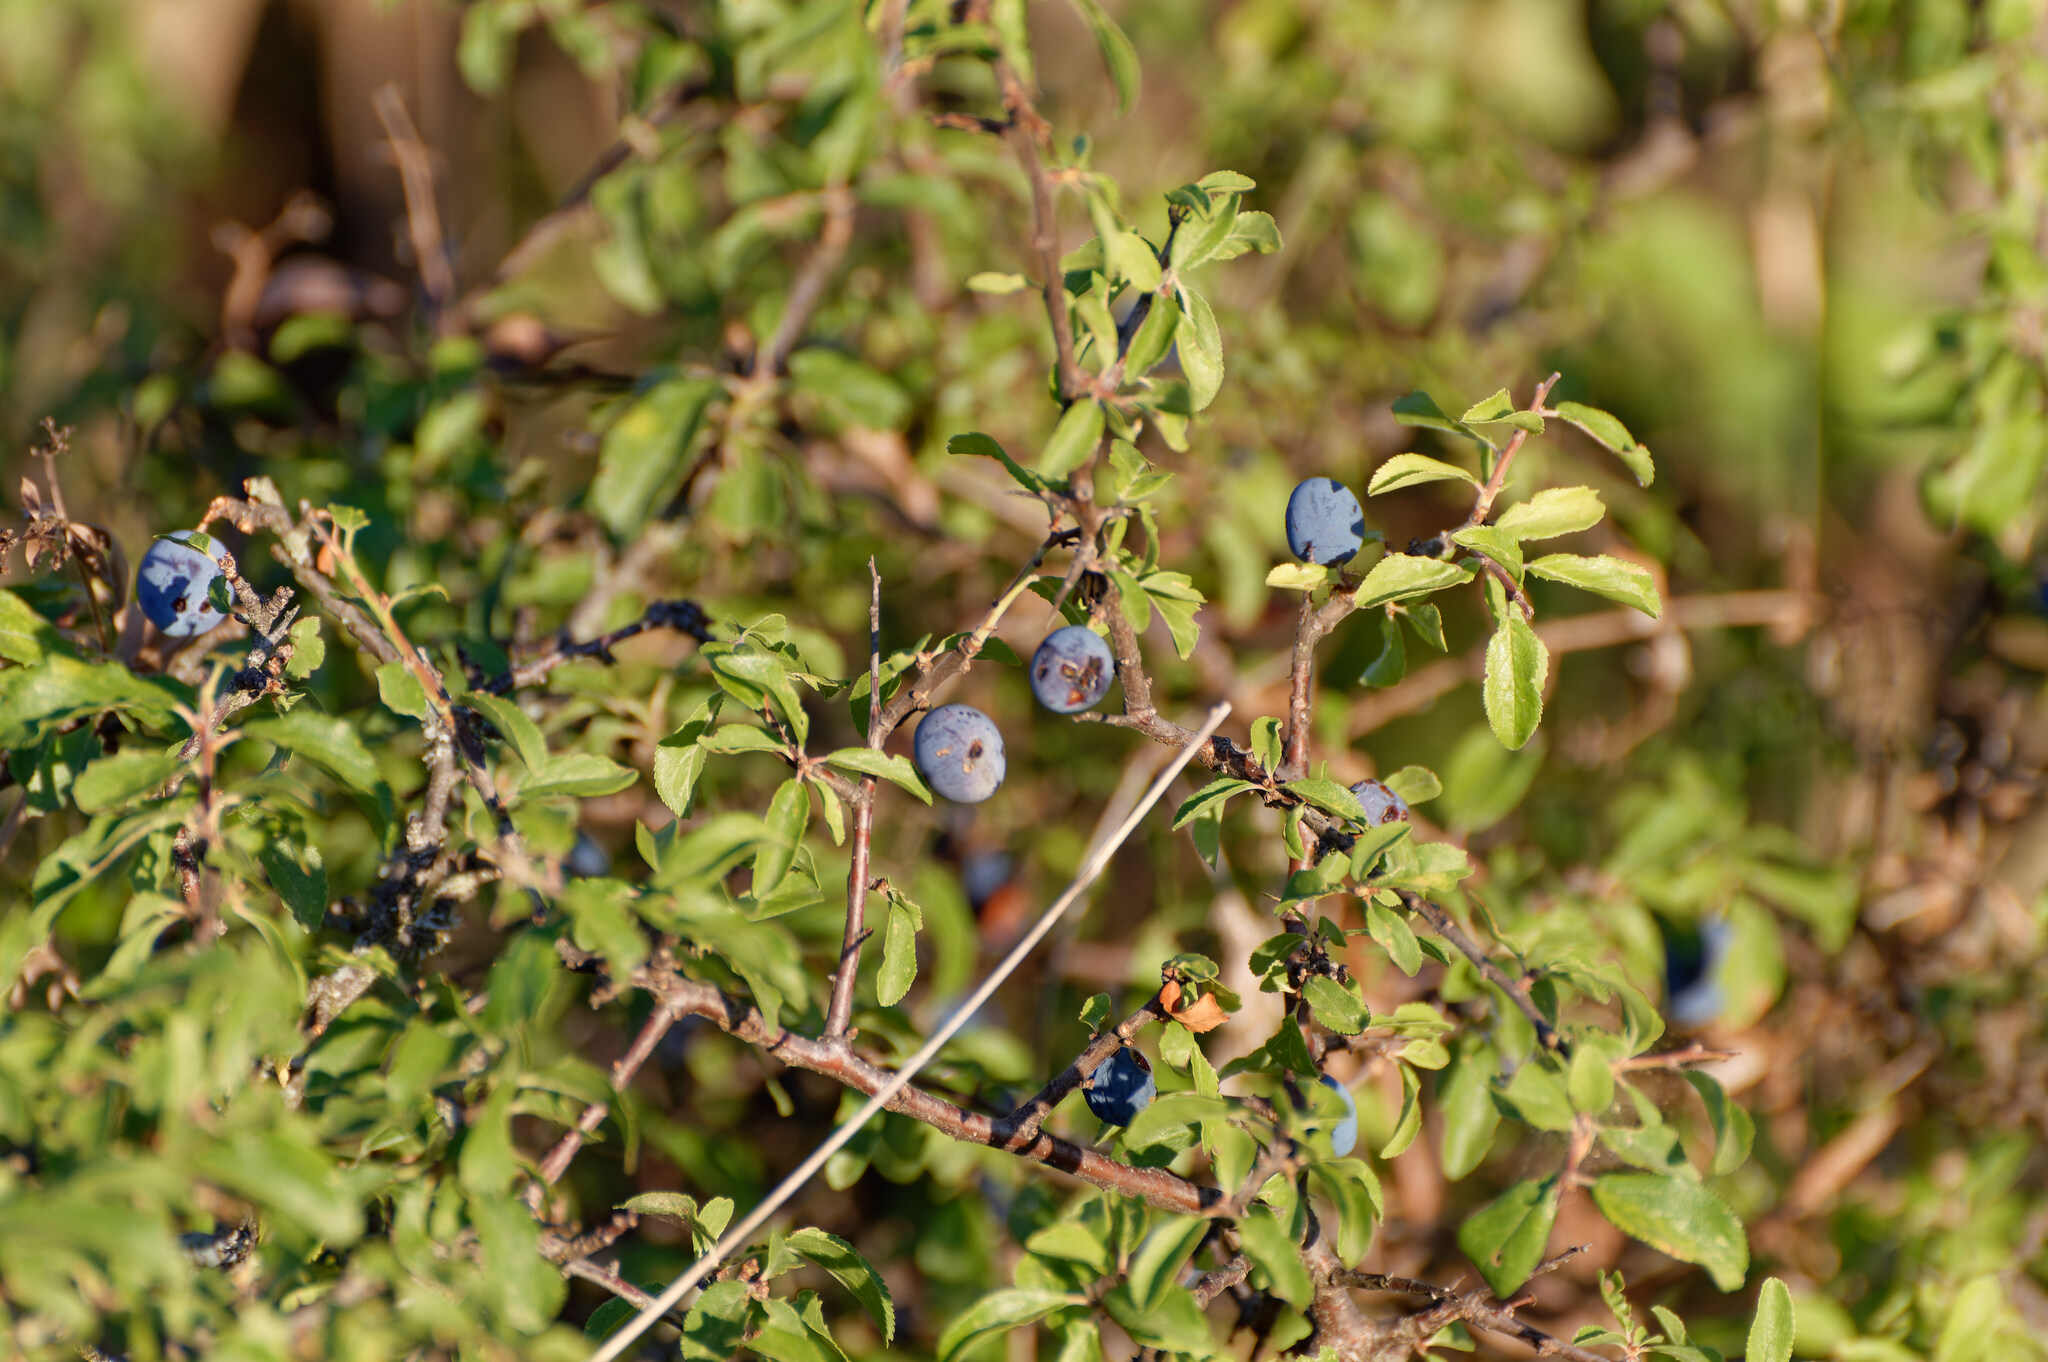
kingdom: Plantae
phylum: Tracheophyta
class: Magnoliopsida
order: Rosales
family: Rosaceae
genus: Prunus
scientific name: Prunus spinosa
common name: Blackthorn
